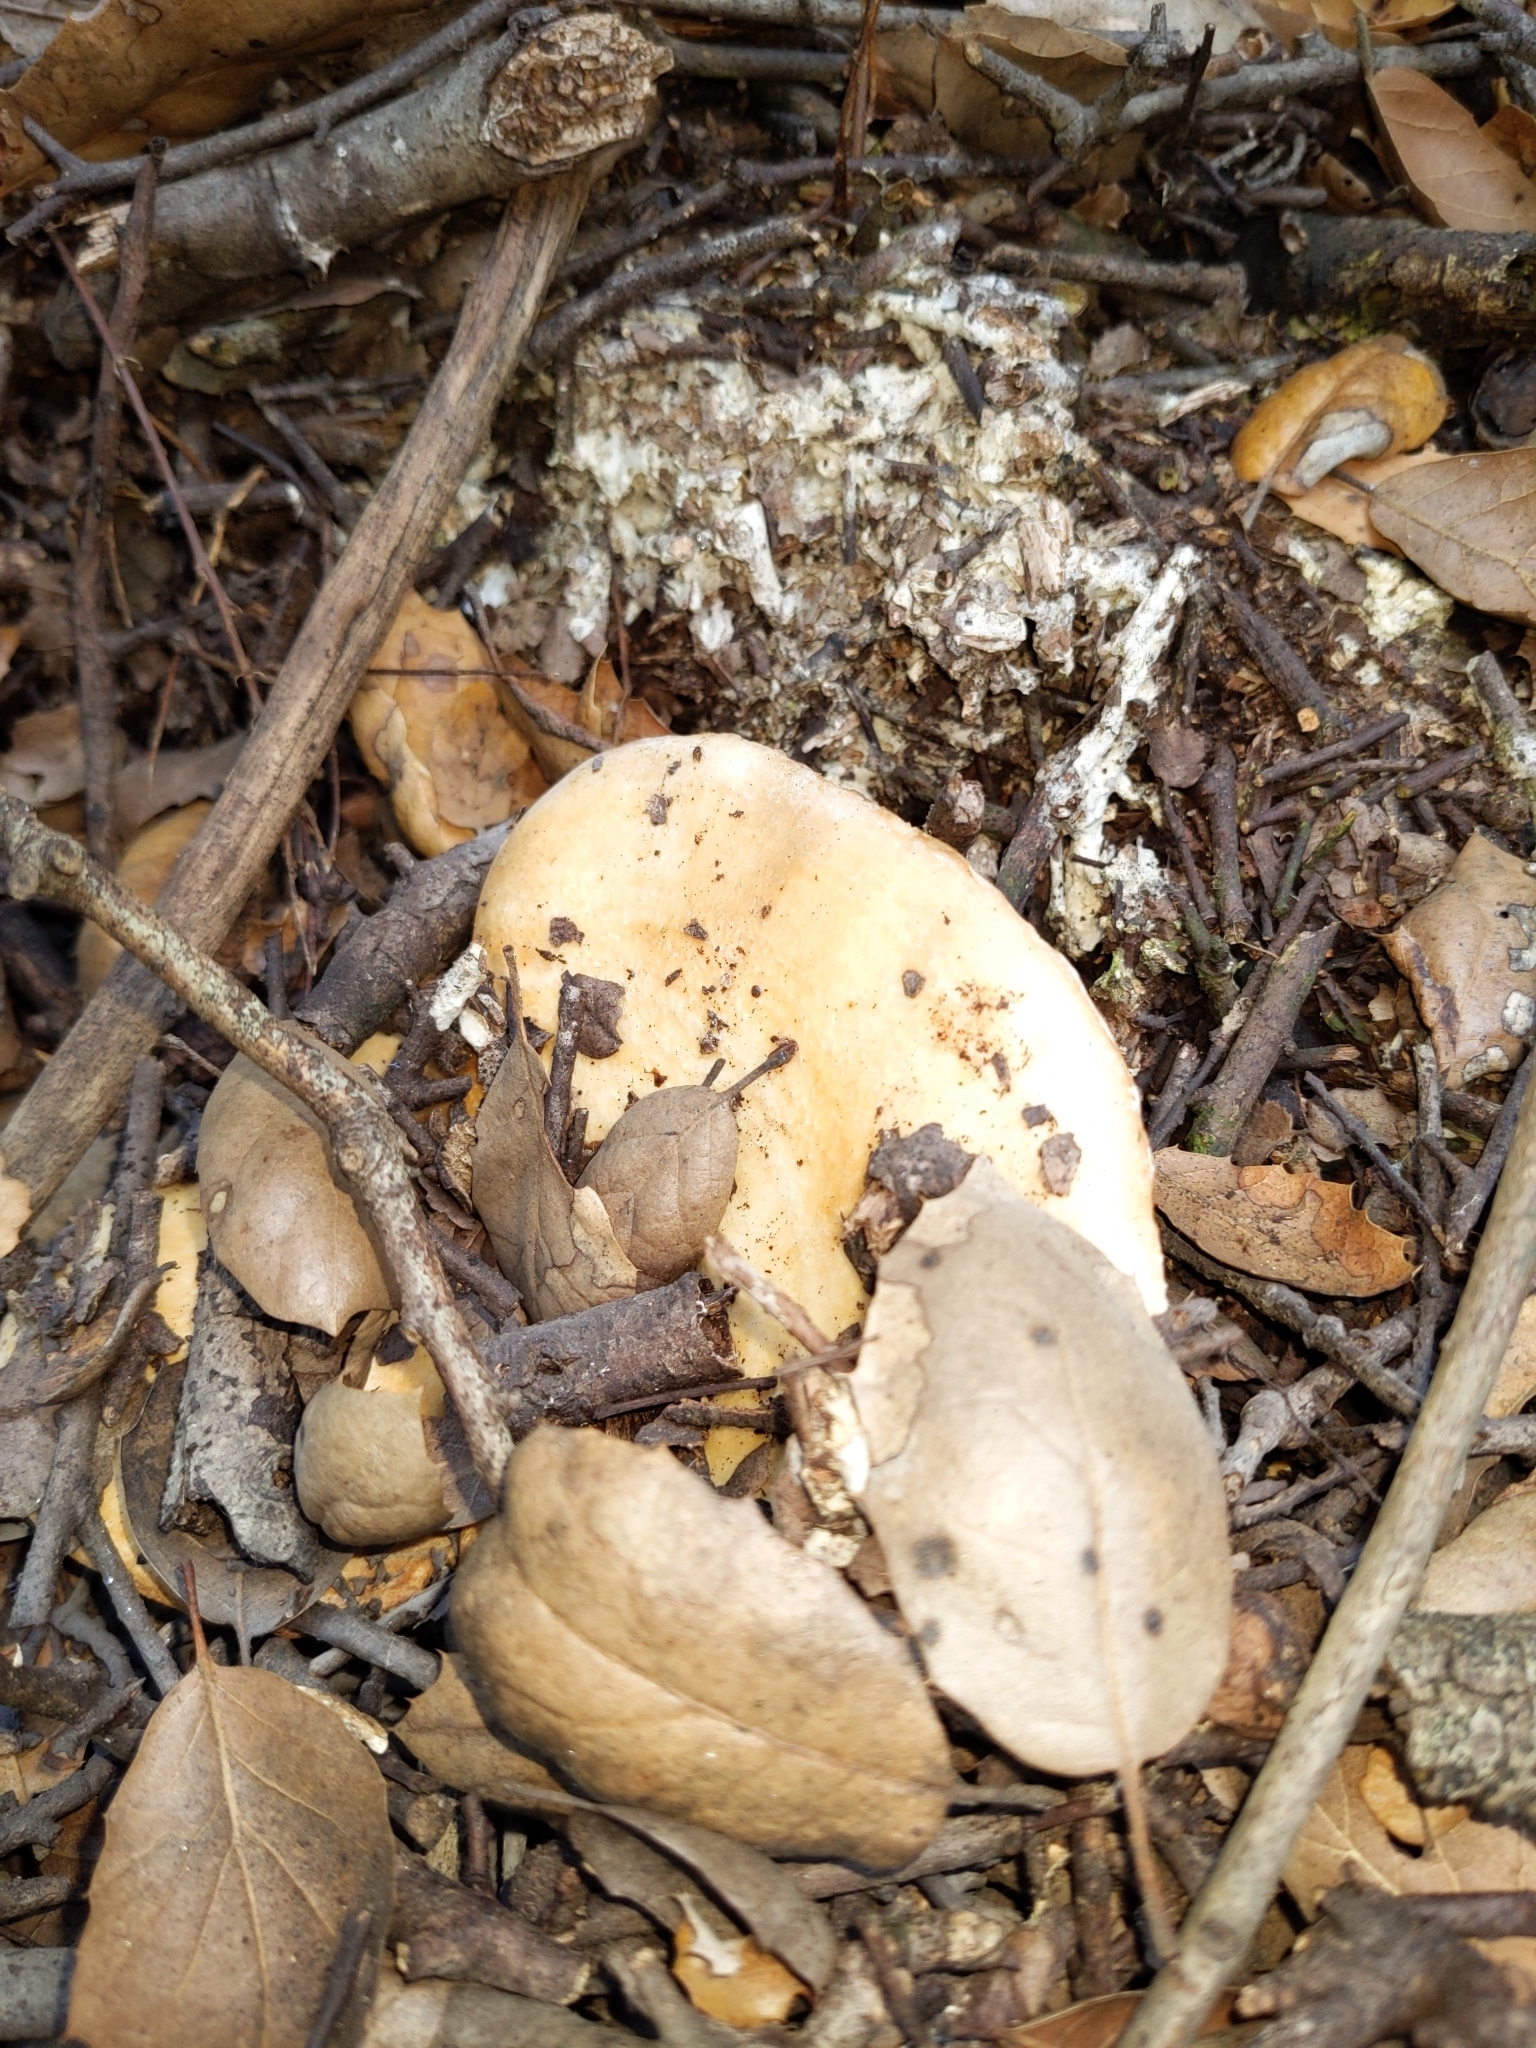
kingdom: Fungi
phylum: Basidiomycota
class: Agaricomycetes
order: Russulales
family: Russulaceae
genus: Lactarius
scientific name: Lactarius alnicola
